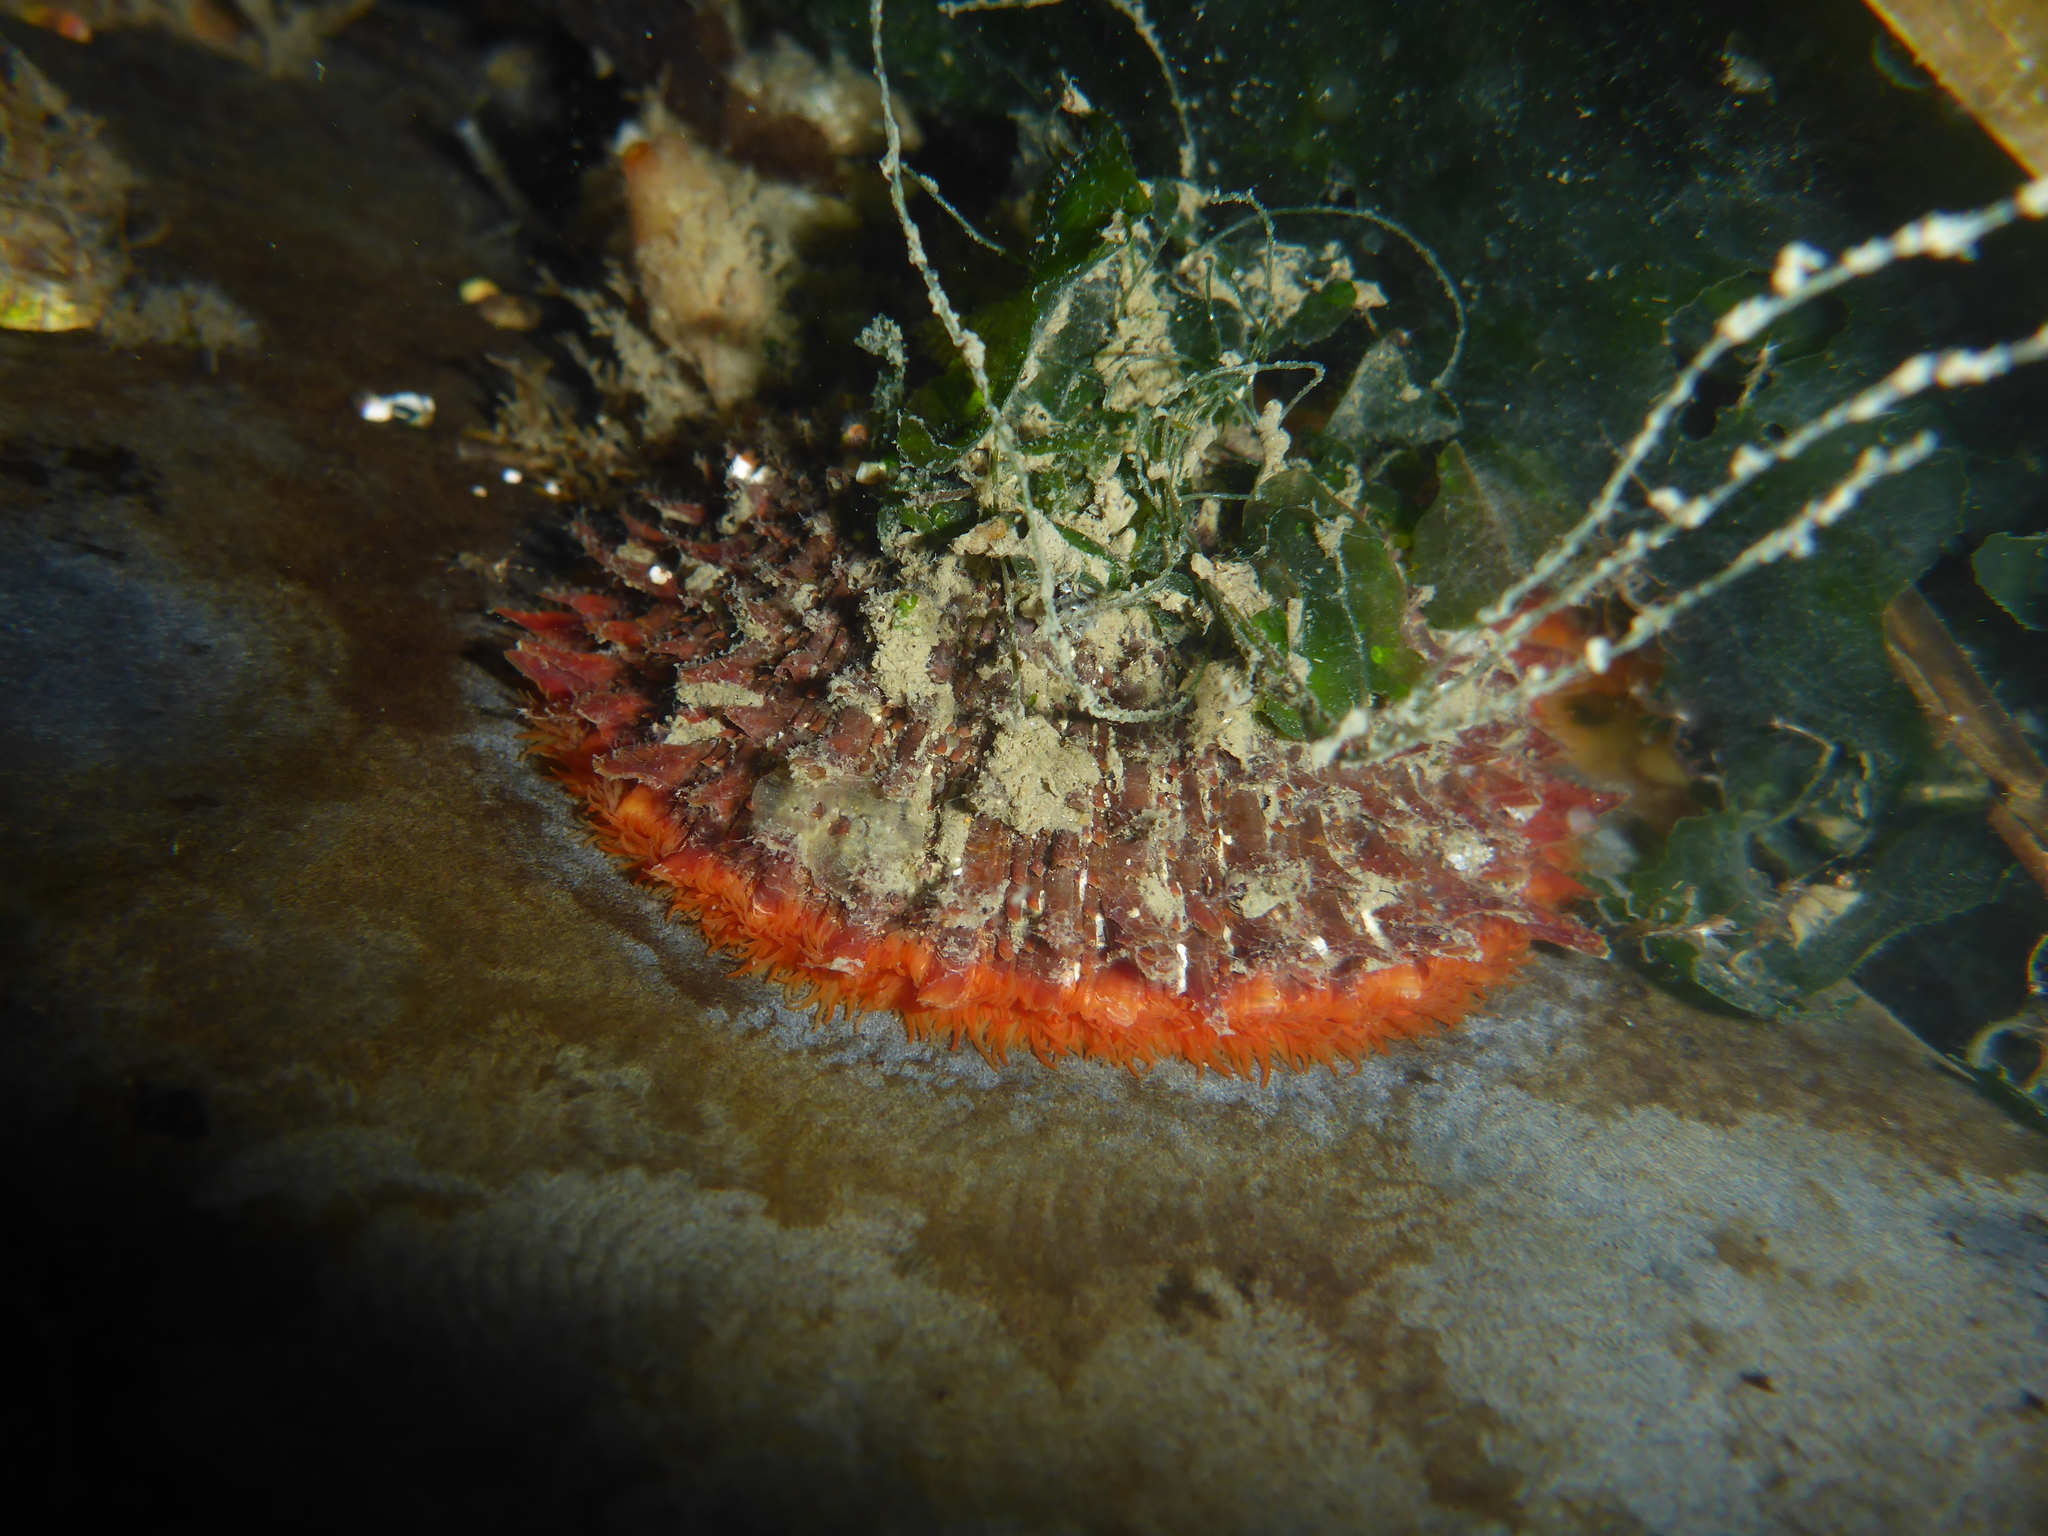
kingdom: Animalia
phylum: Mollusca
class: Bivalvia
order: Pectinida
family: Pectinidae
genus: Crassadoma
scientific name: Crassadoma gigantea
